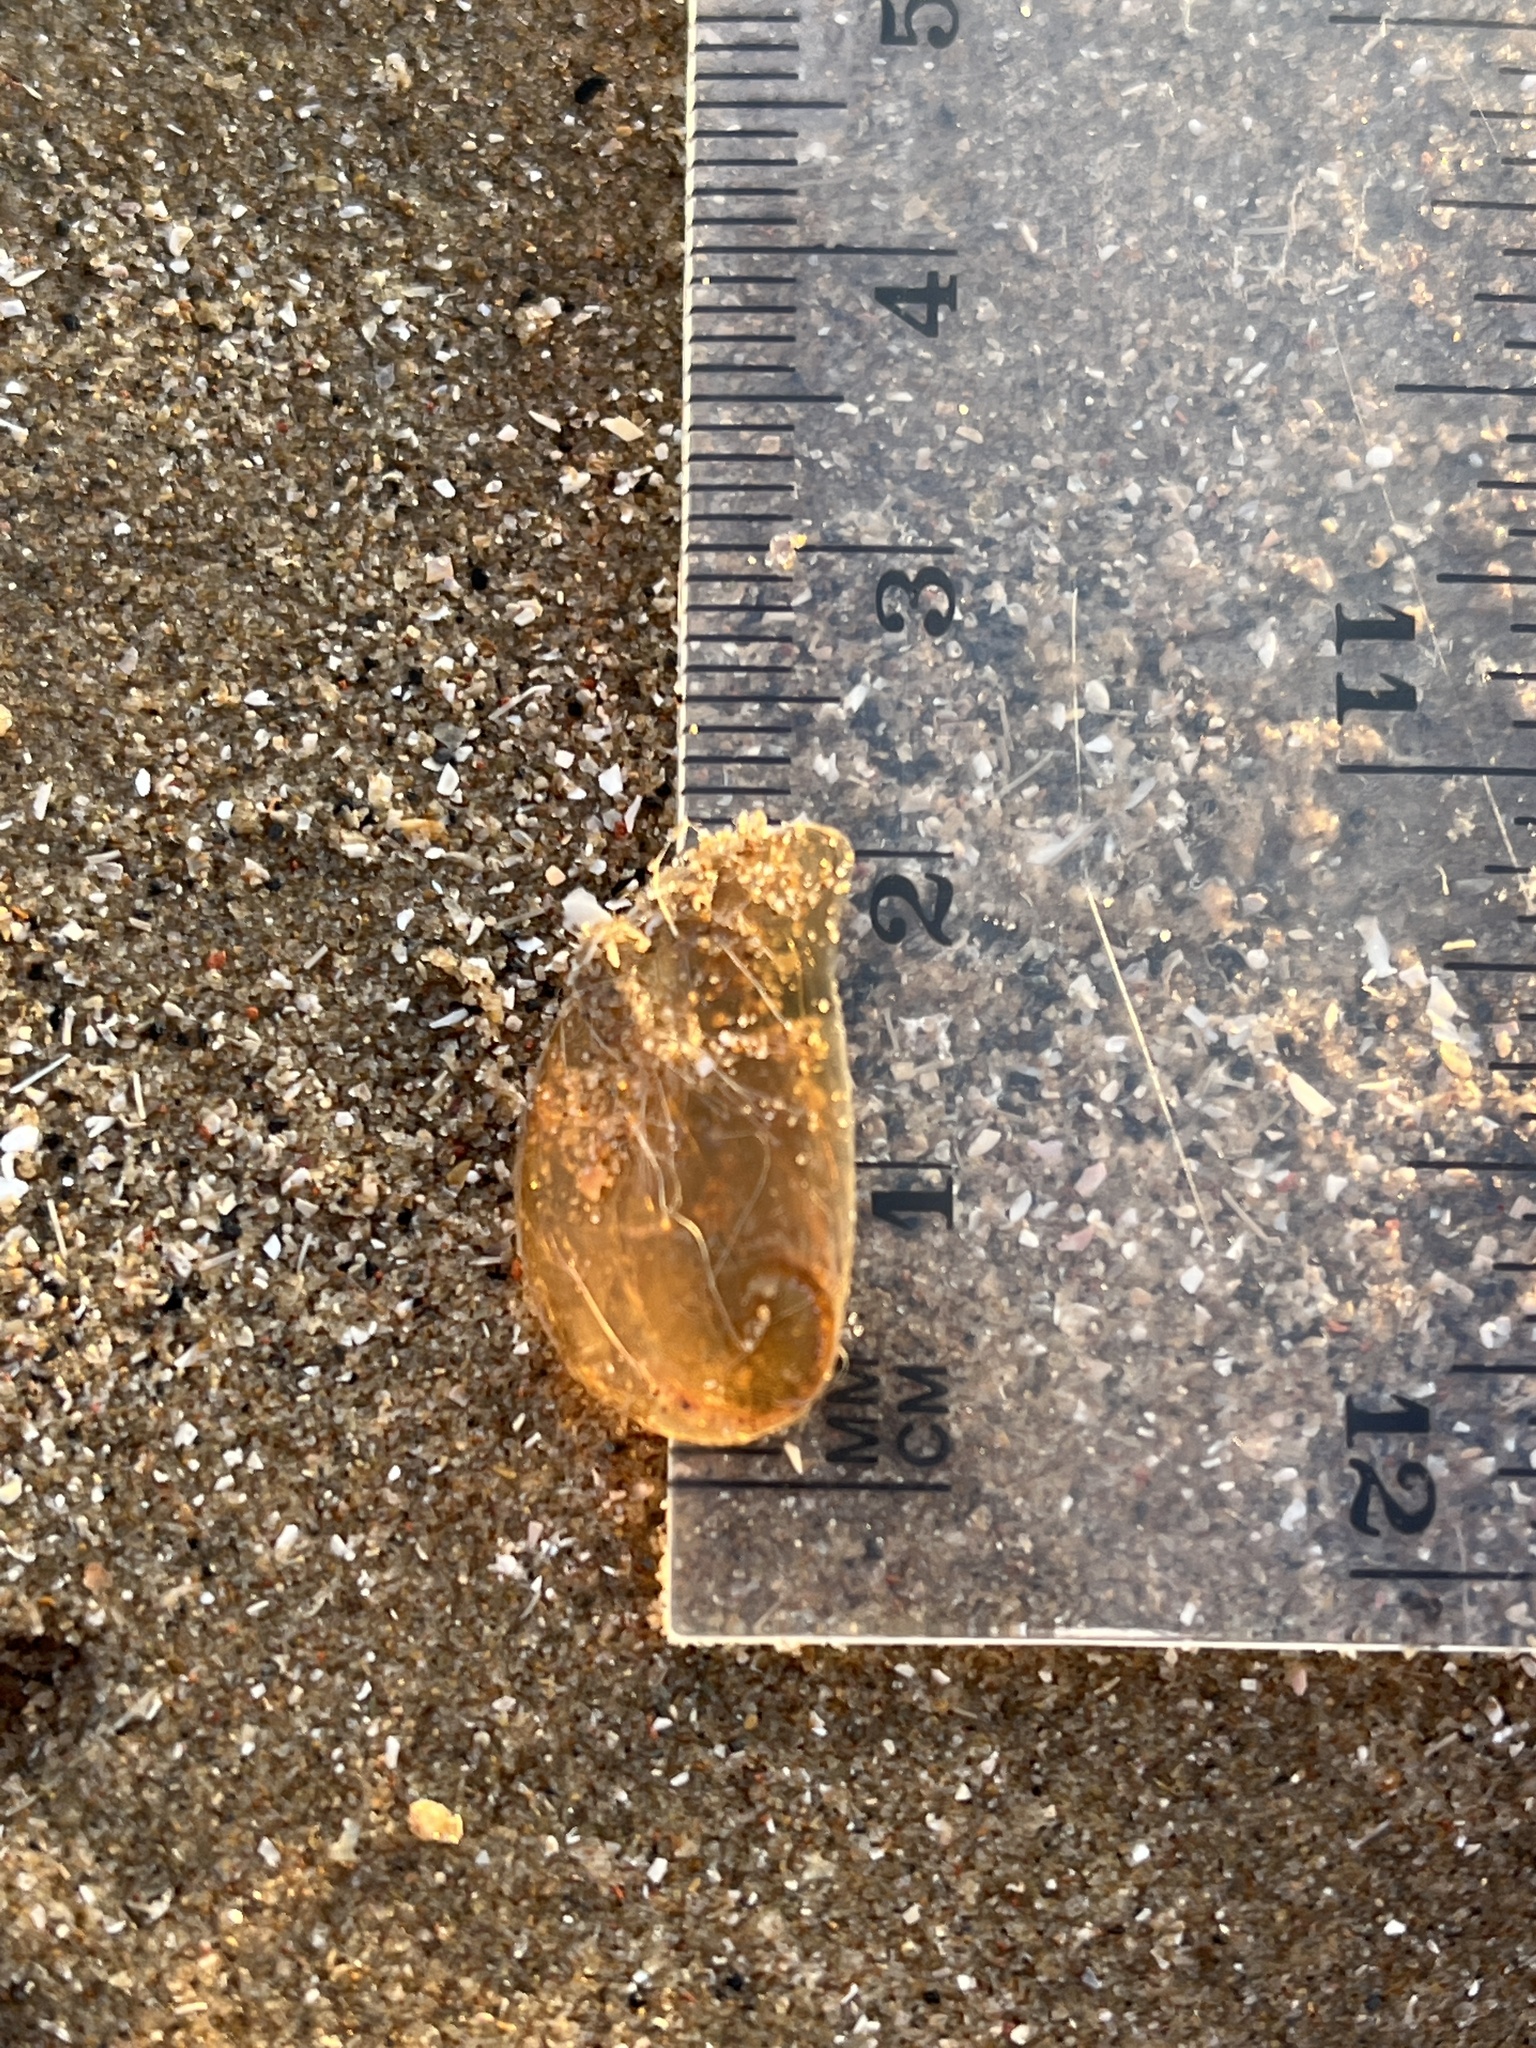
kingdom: Animalia
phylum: Mollusca
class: Gastropoda
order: Littorinimorpha
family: Naticidae
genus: Euspira
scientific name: Euspira catena
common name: Necklace shell
